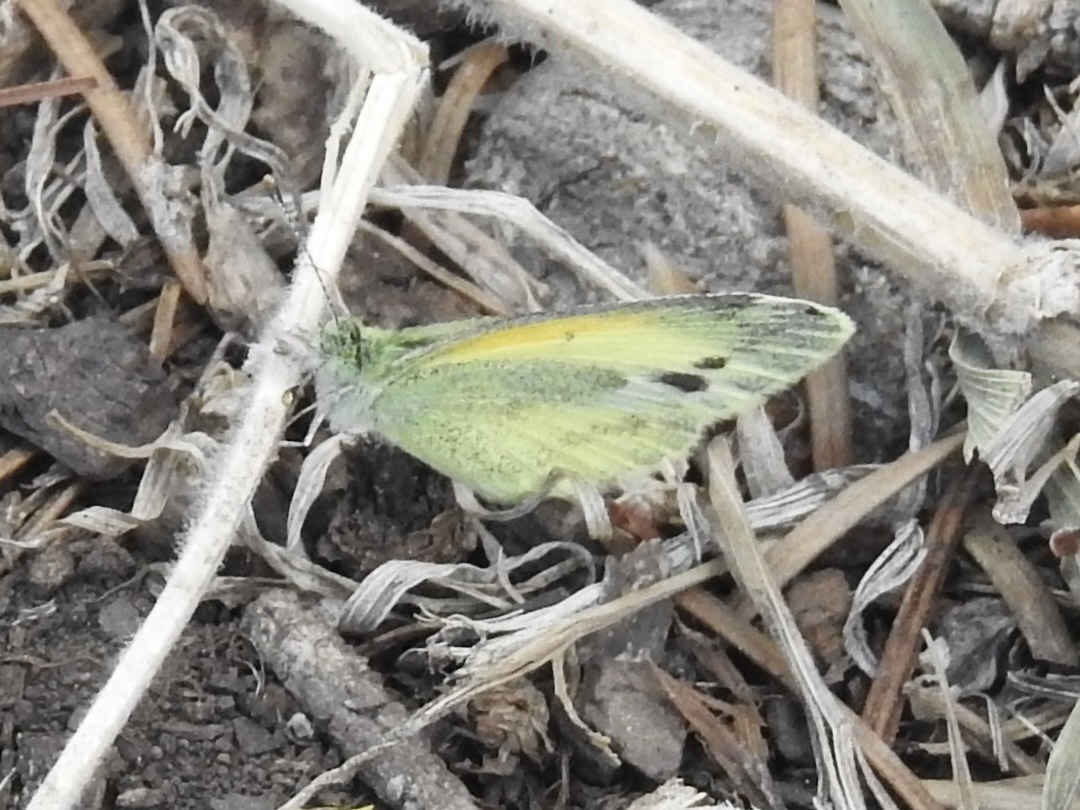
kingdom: Animalia
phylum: Arthropoda
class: Insecta
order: Lepidoptera
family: Pieridae
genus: Nathalis
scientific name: Nathalis iole
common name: Dainty sulphur
